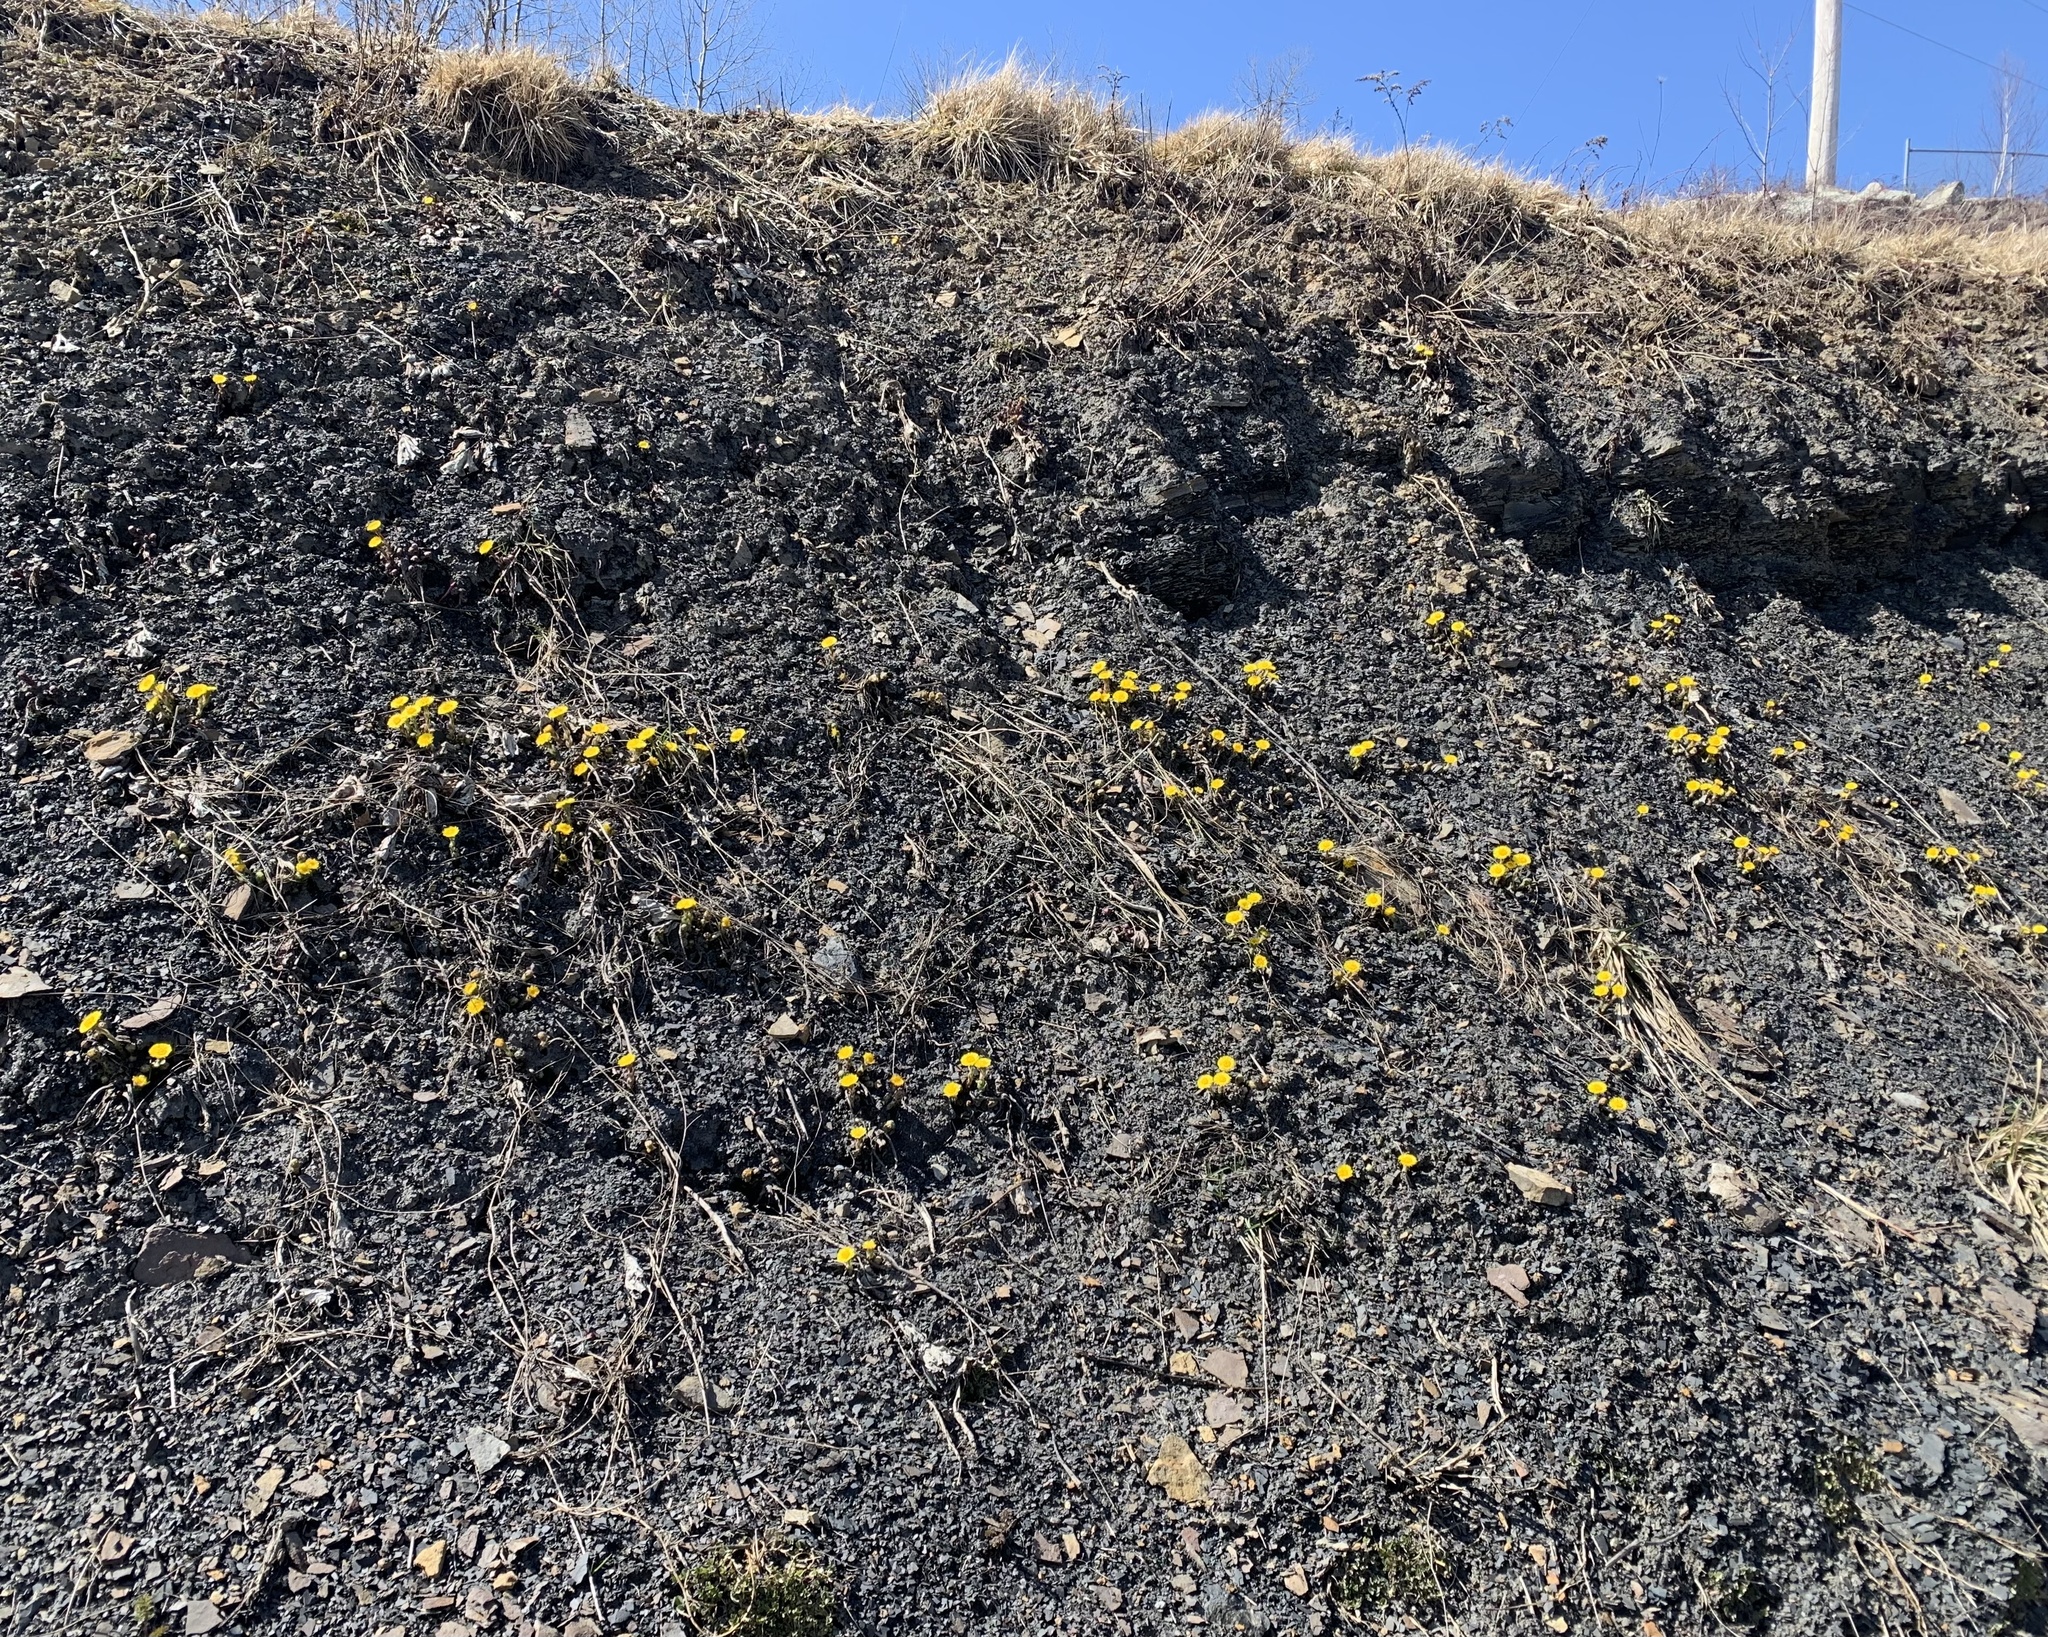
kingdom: Plantae
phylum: Tracheophyta
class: Magnoliopsida
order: Asterales
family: Asteraceae
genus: Tussilago
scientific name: Tussilago farfara
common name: Coltsfoot
